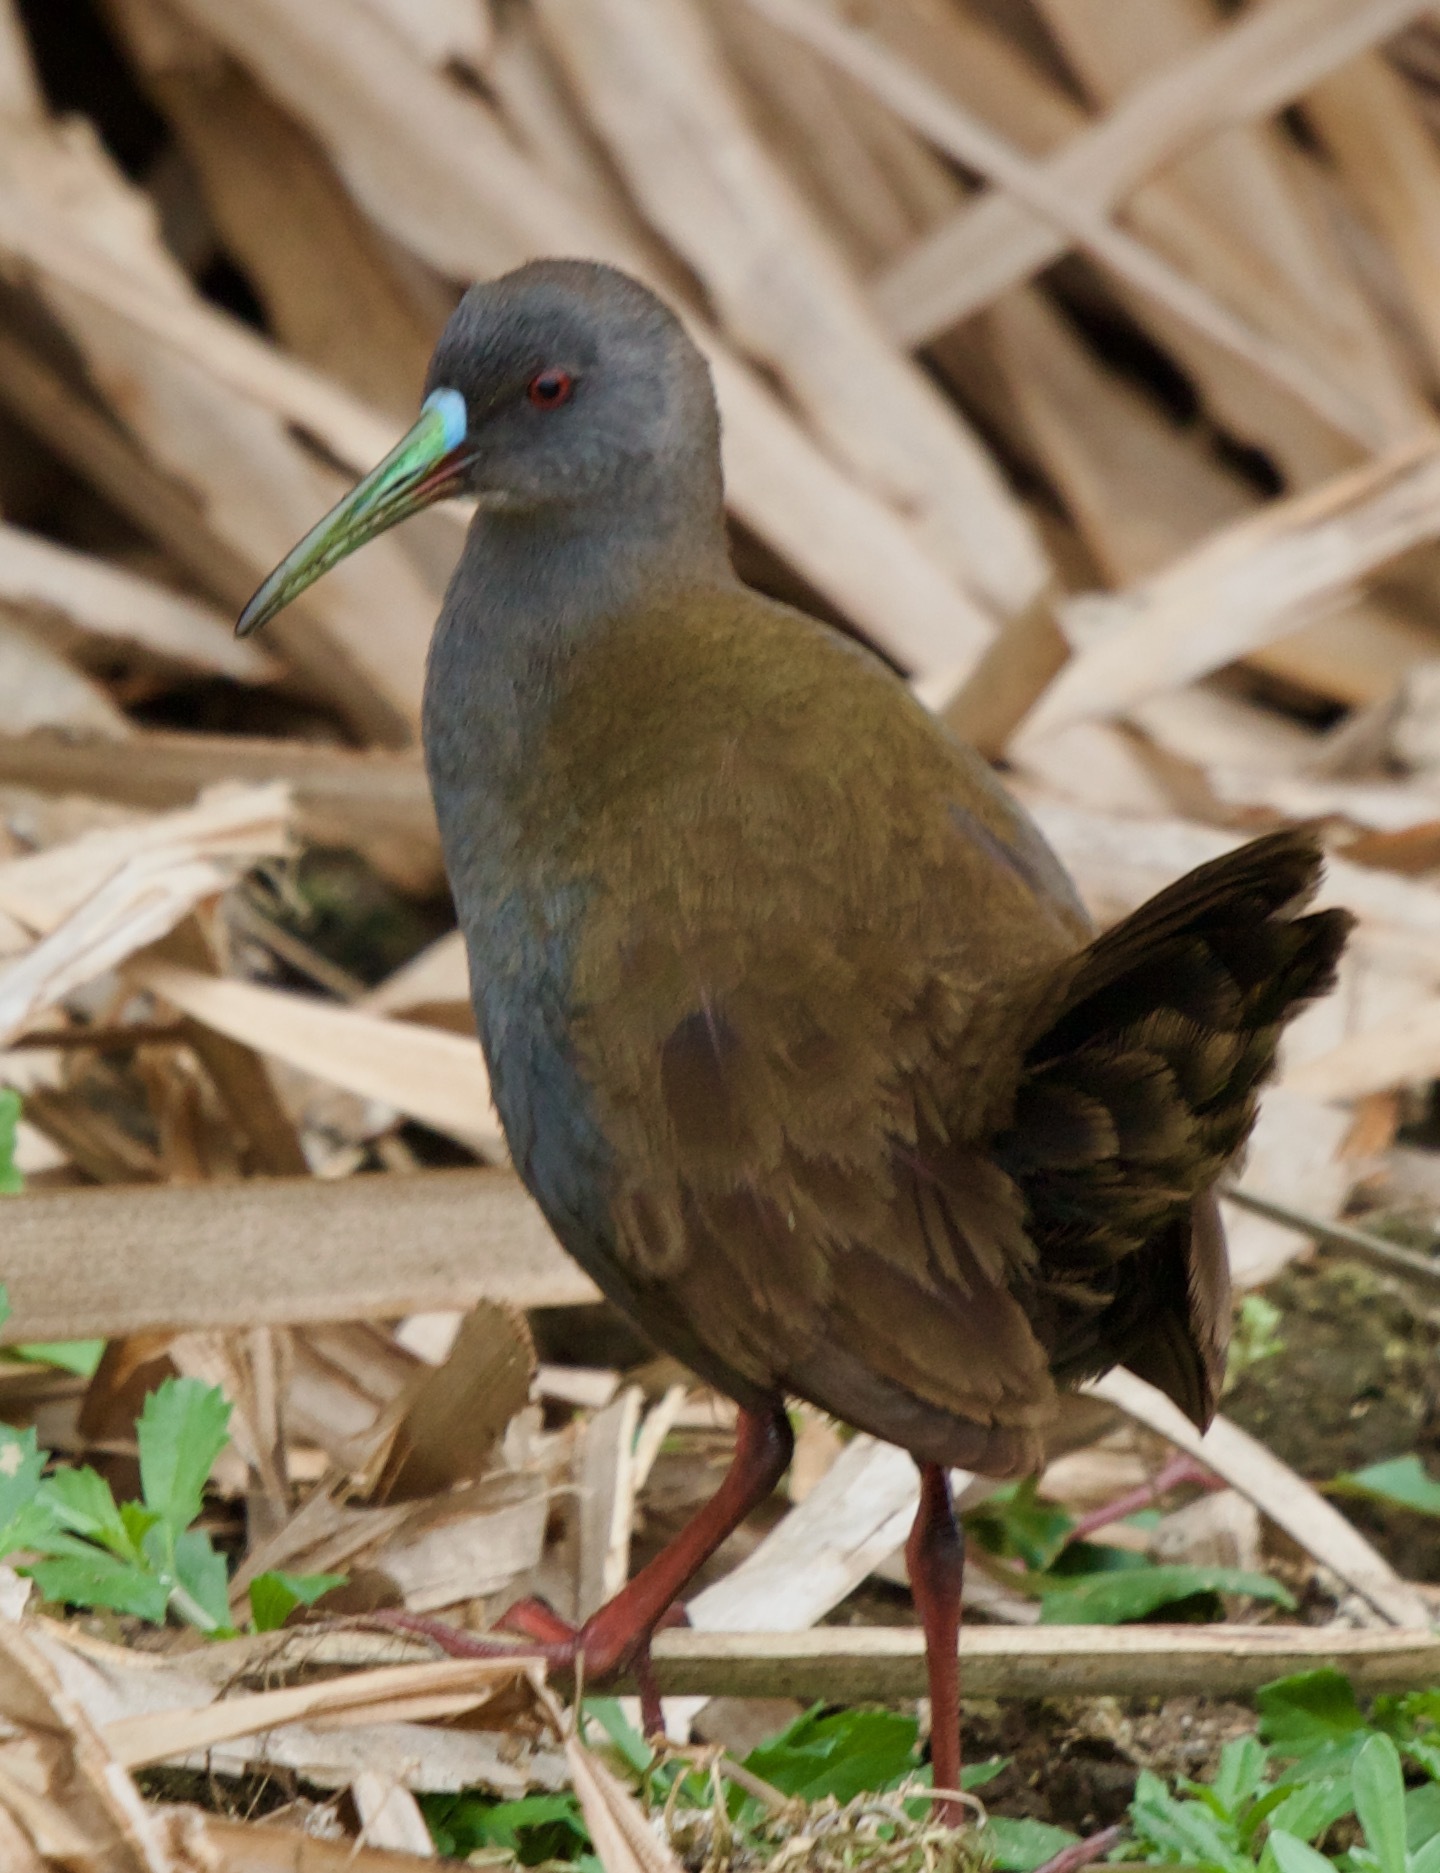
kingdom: Animalia
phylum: Chordata
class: Aves
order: Gruiformes
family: Rallidae
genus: Pardirallus
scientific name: Pardirallus sanguinolentus
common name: Plumbeous rail
